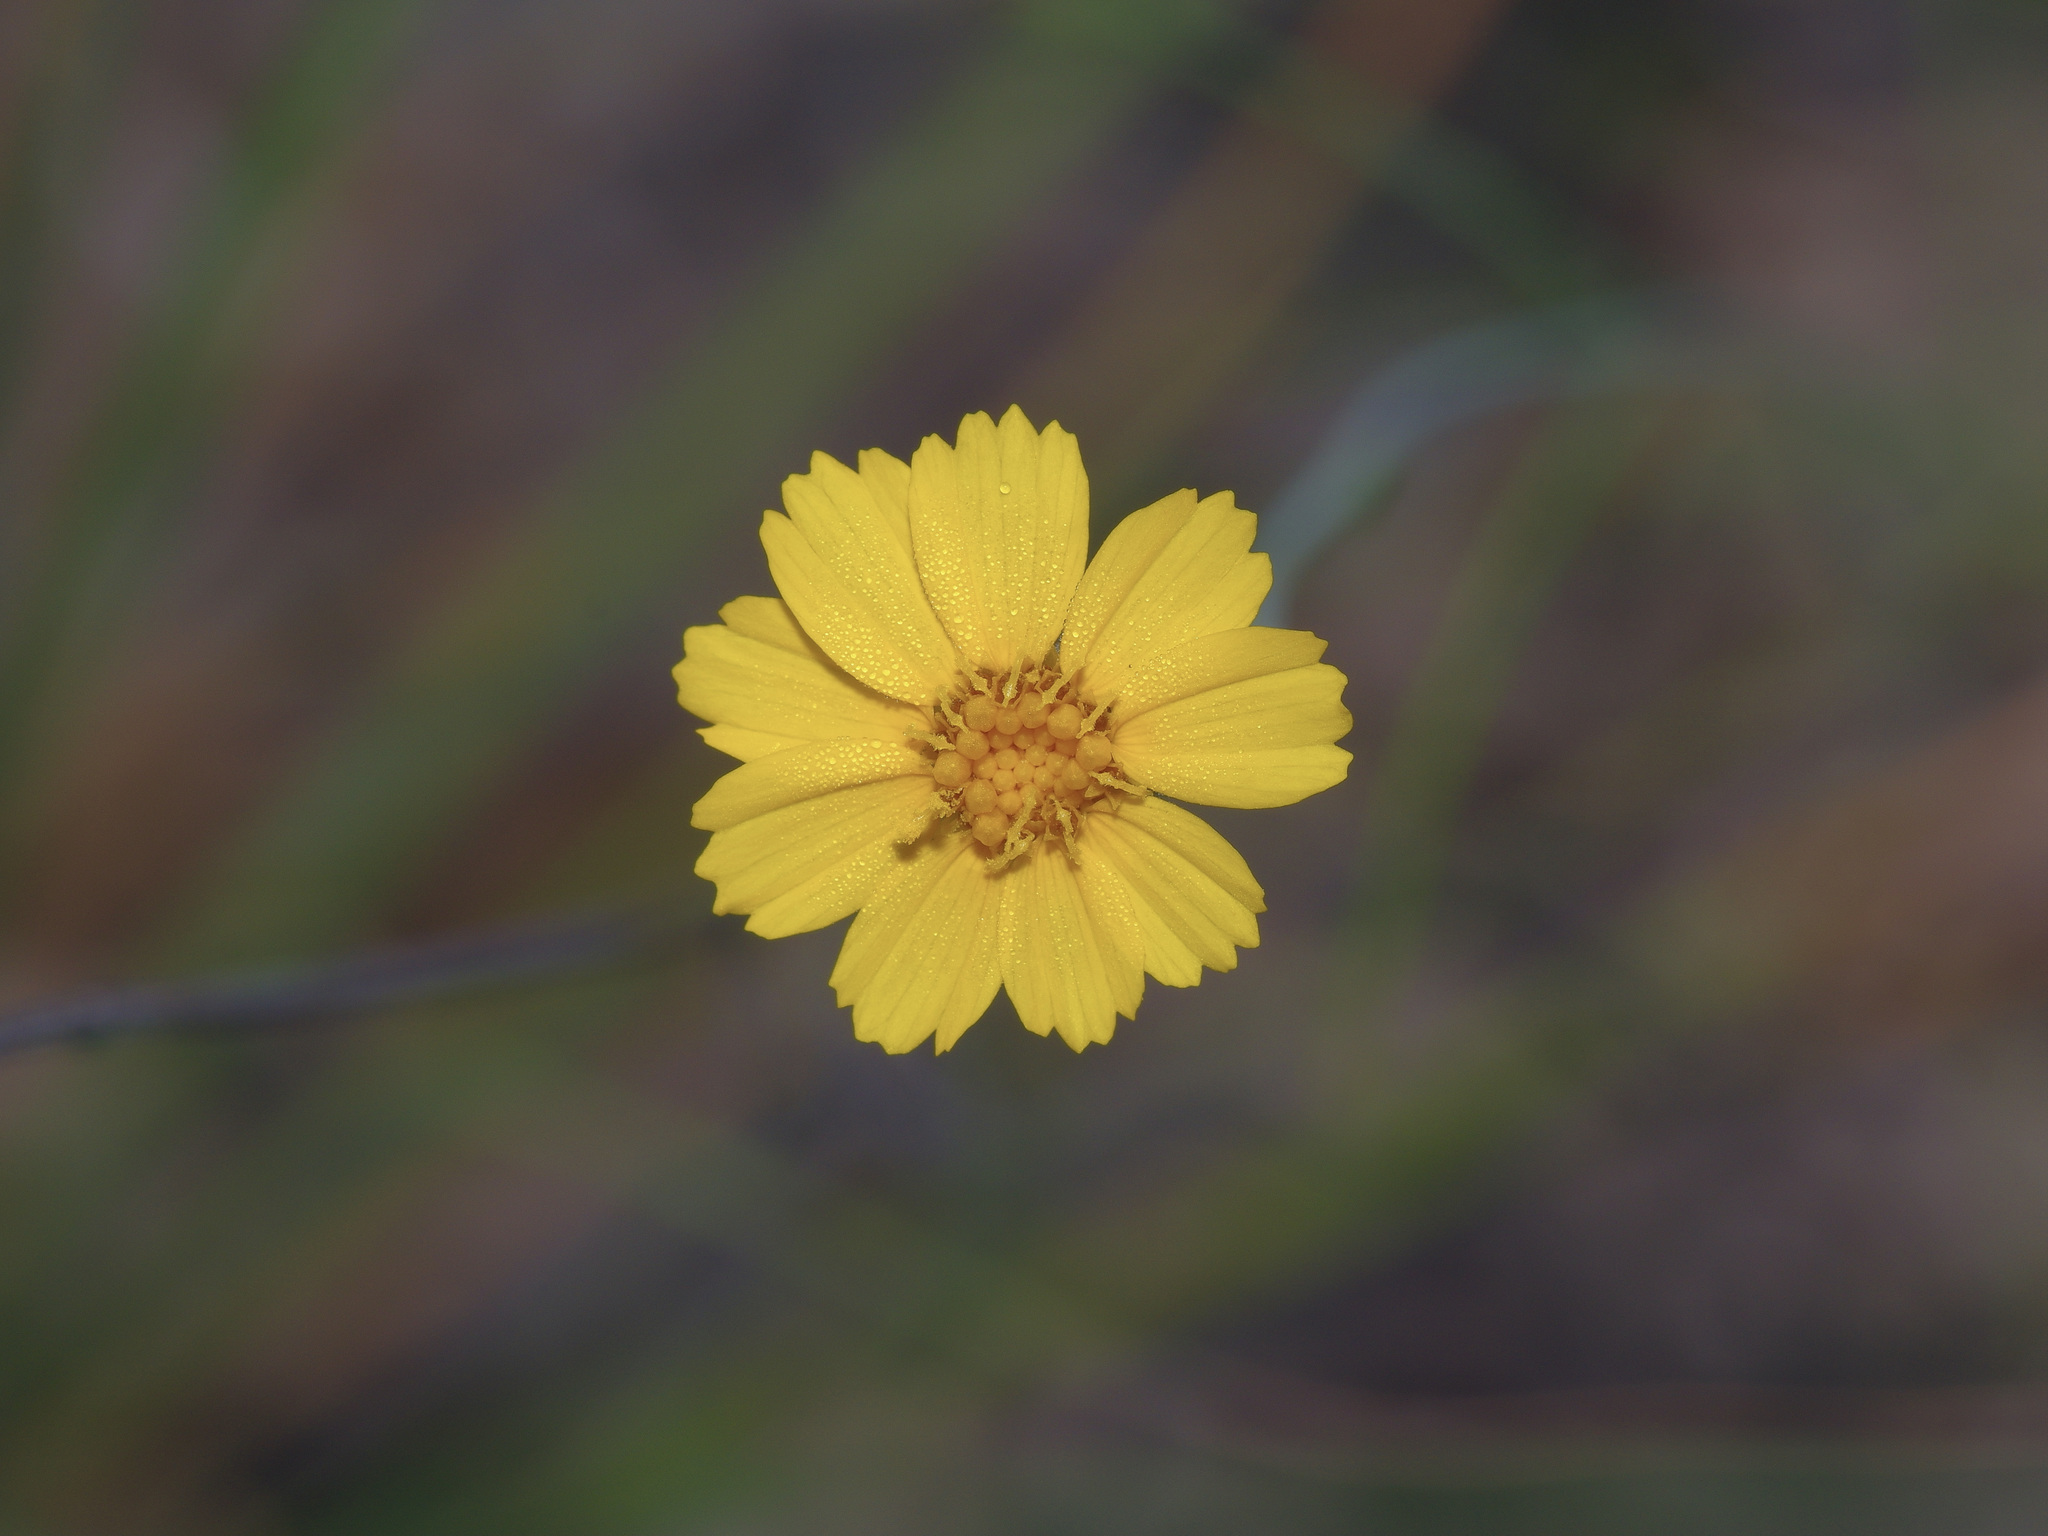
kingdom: Plantae
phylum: Tracheophyta
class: Magnoliopsida
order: Asterales
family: Asteraceae
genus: Thelesperma
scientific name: Thelesperma simplicifolium
